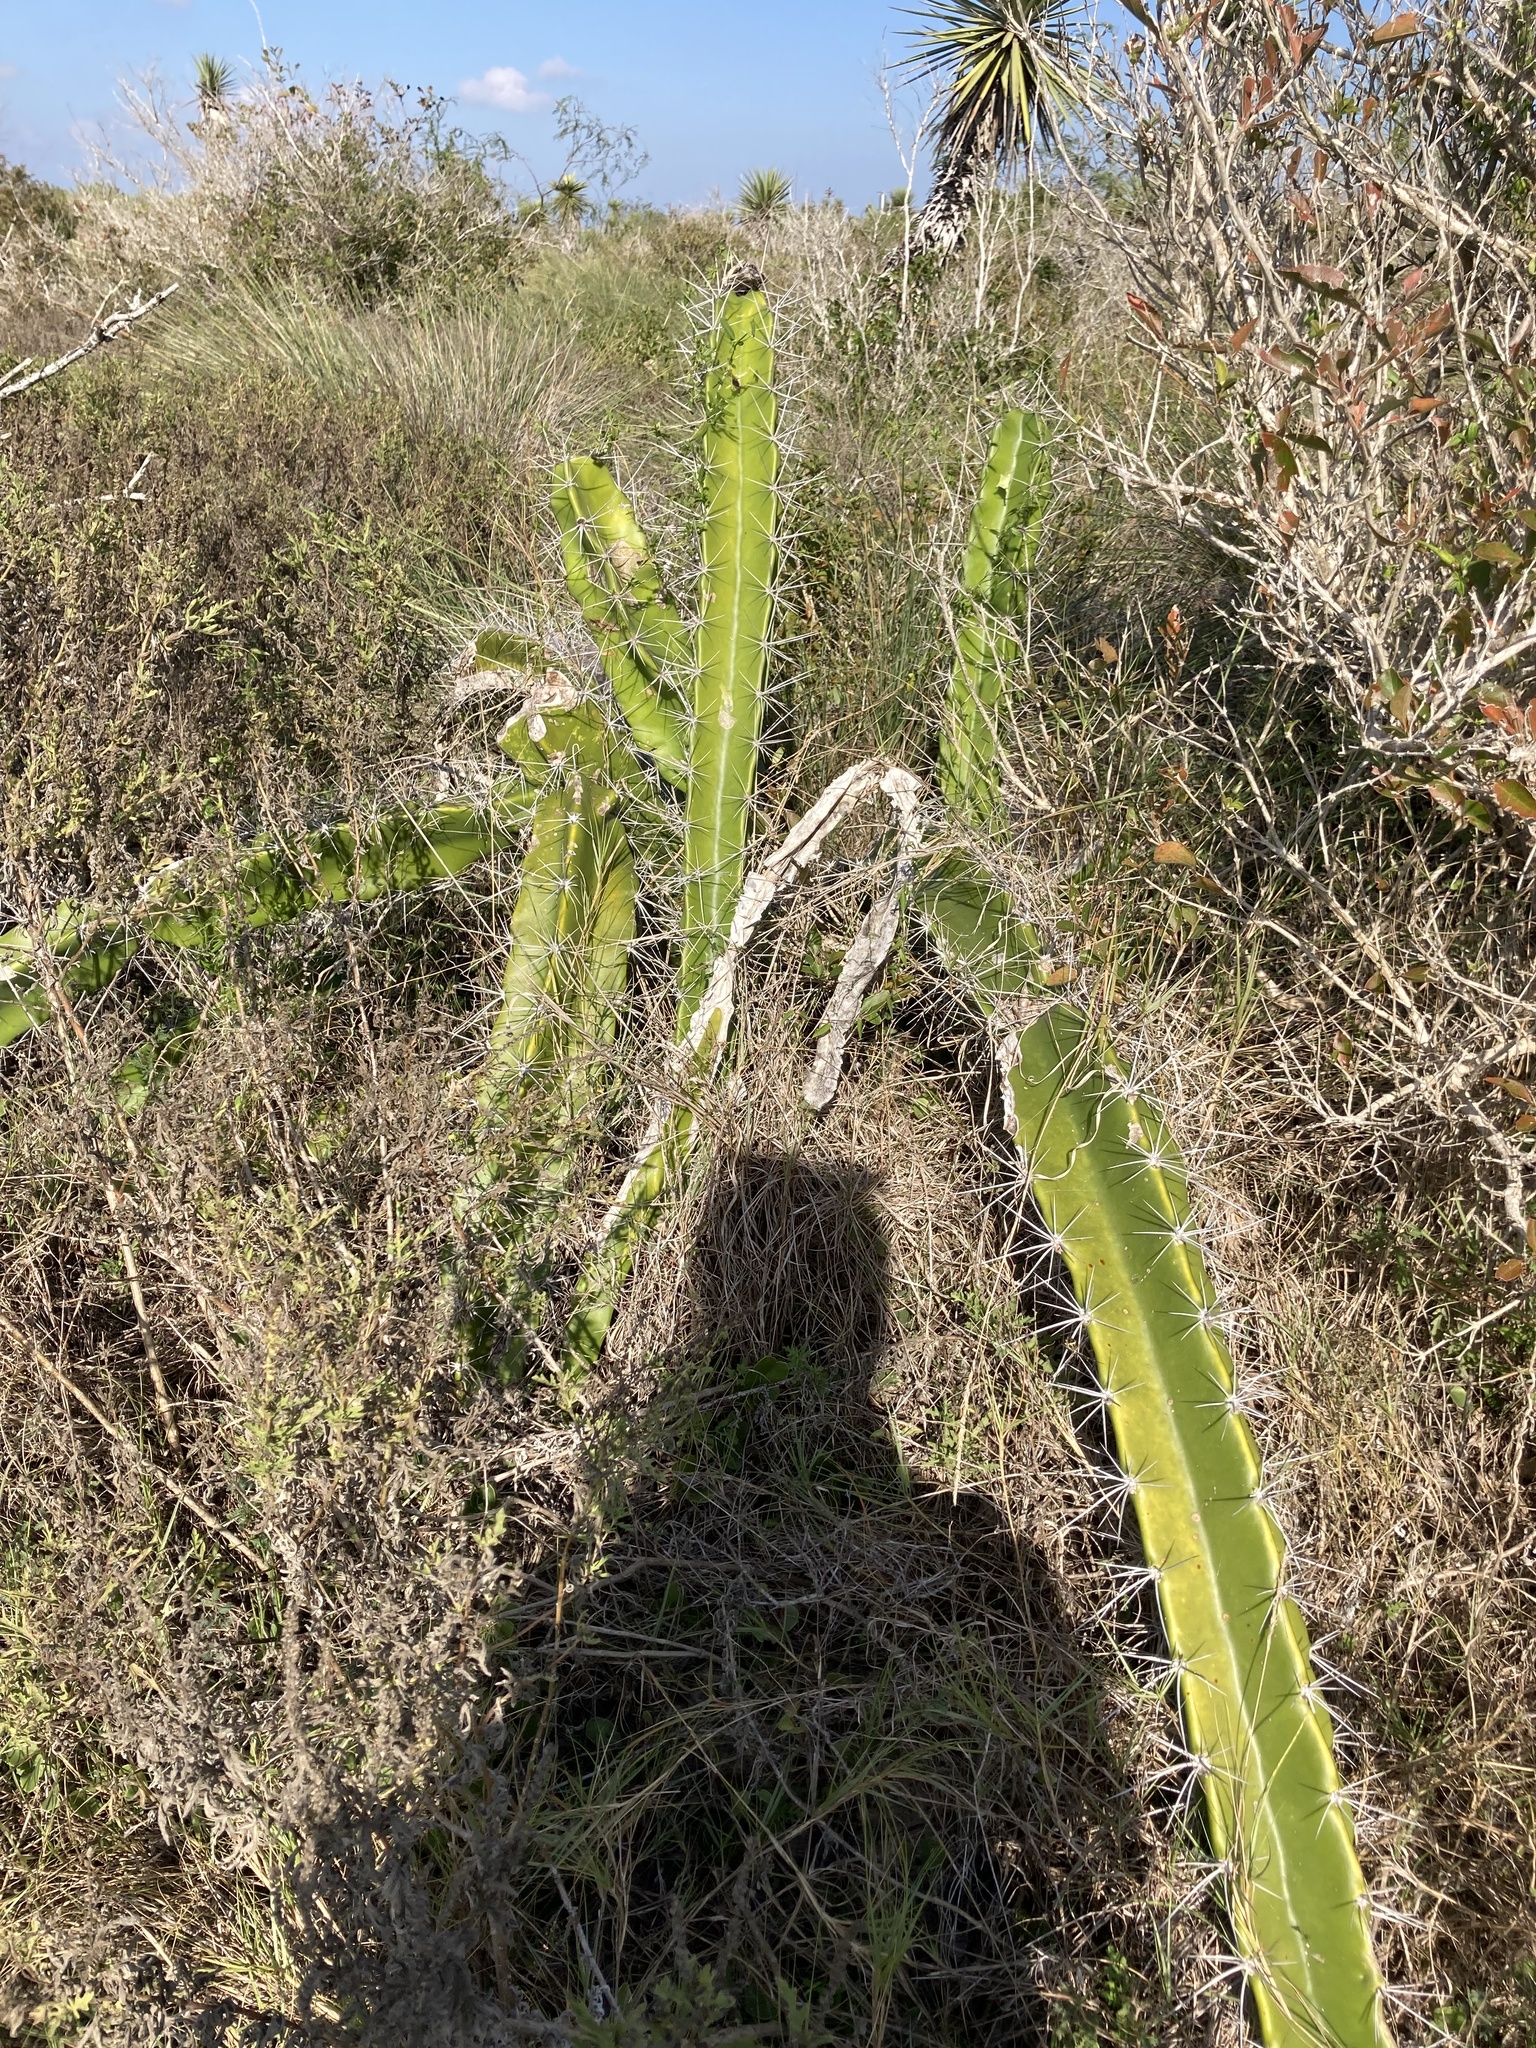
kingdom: Plantae
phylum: Tracheophyta
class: Magnoliopsida
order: Caryophyllales
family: Cactaceae
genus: Acanthocereus
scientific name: Acanthocereus tetragonus
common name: Triangle cactus
